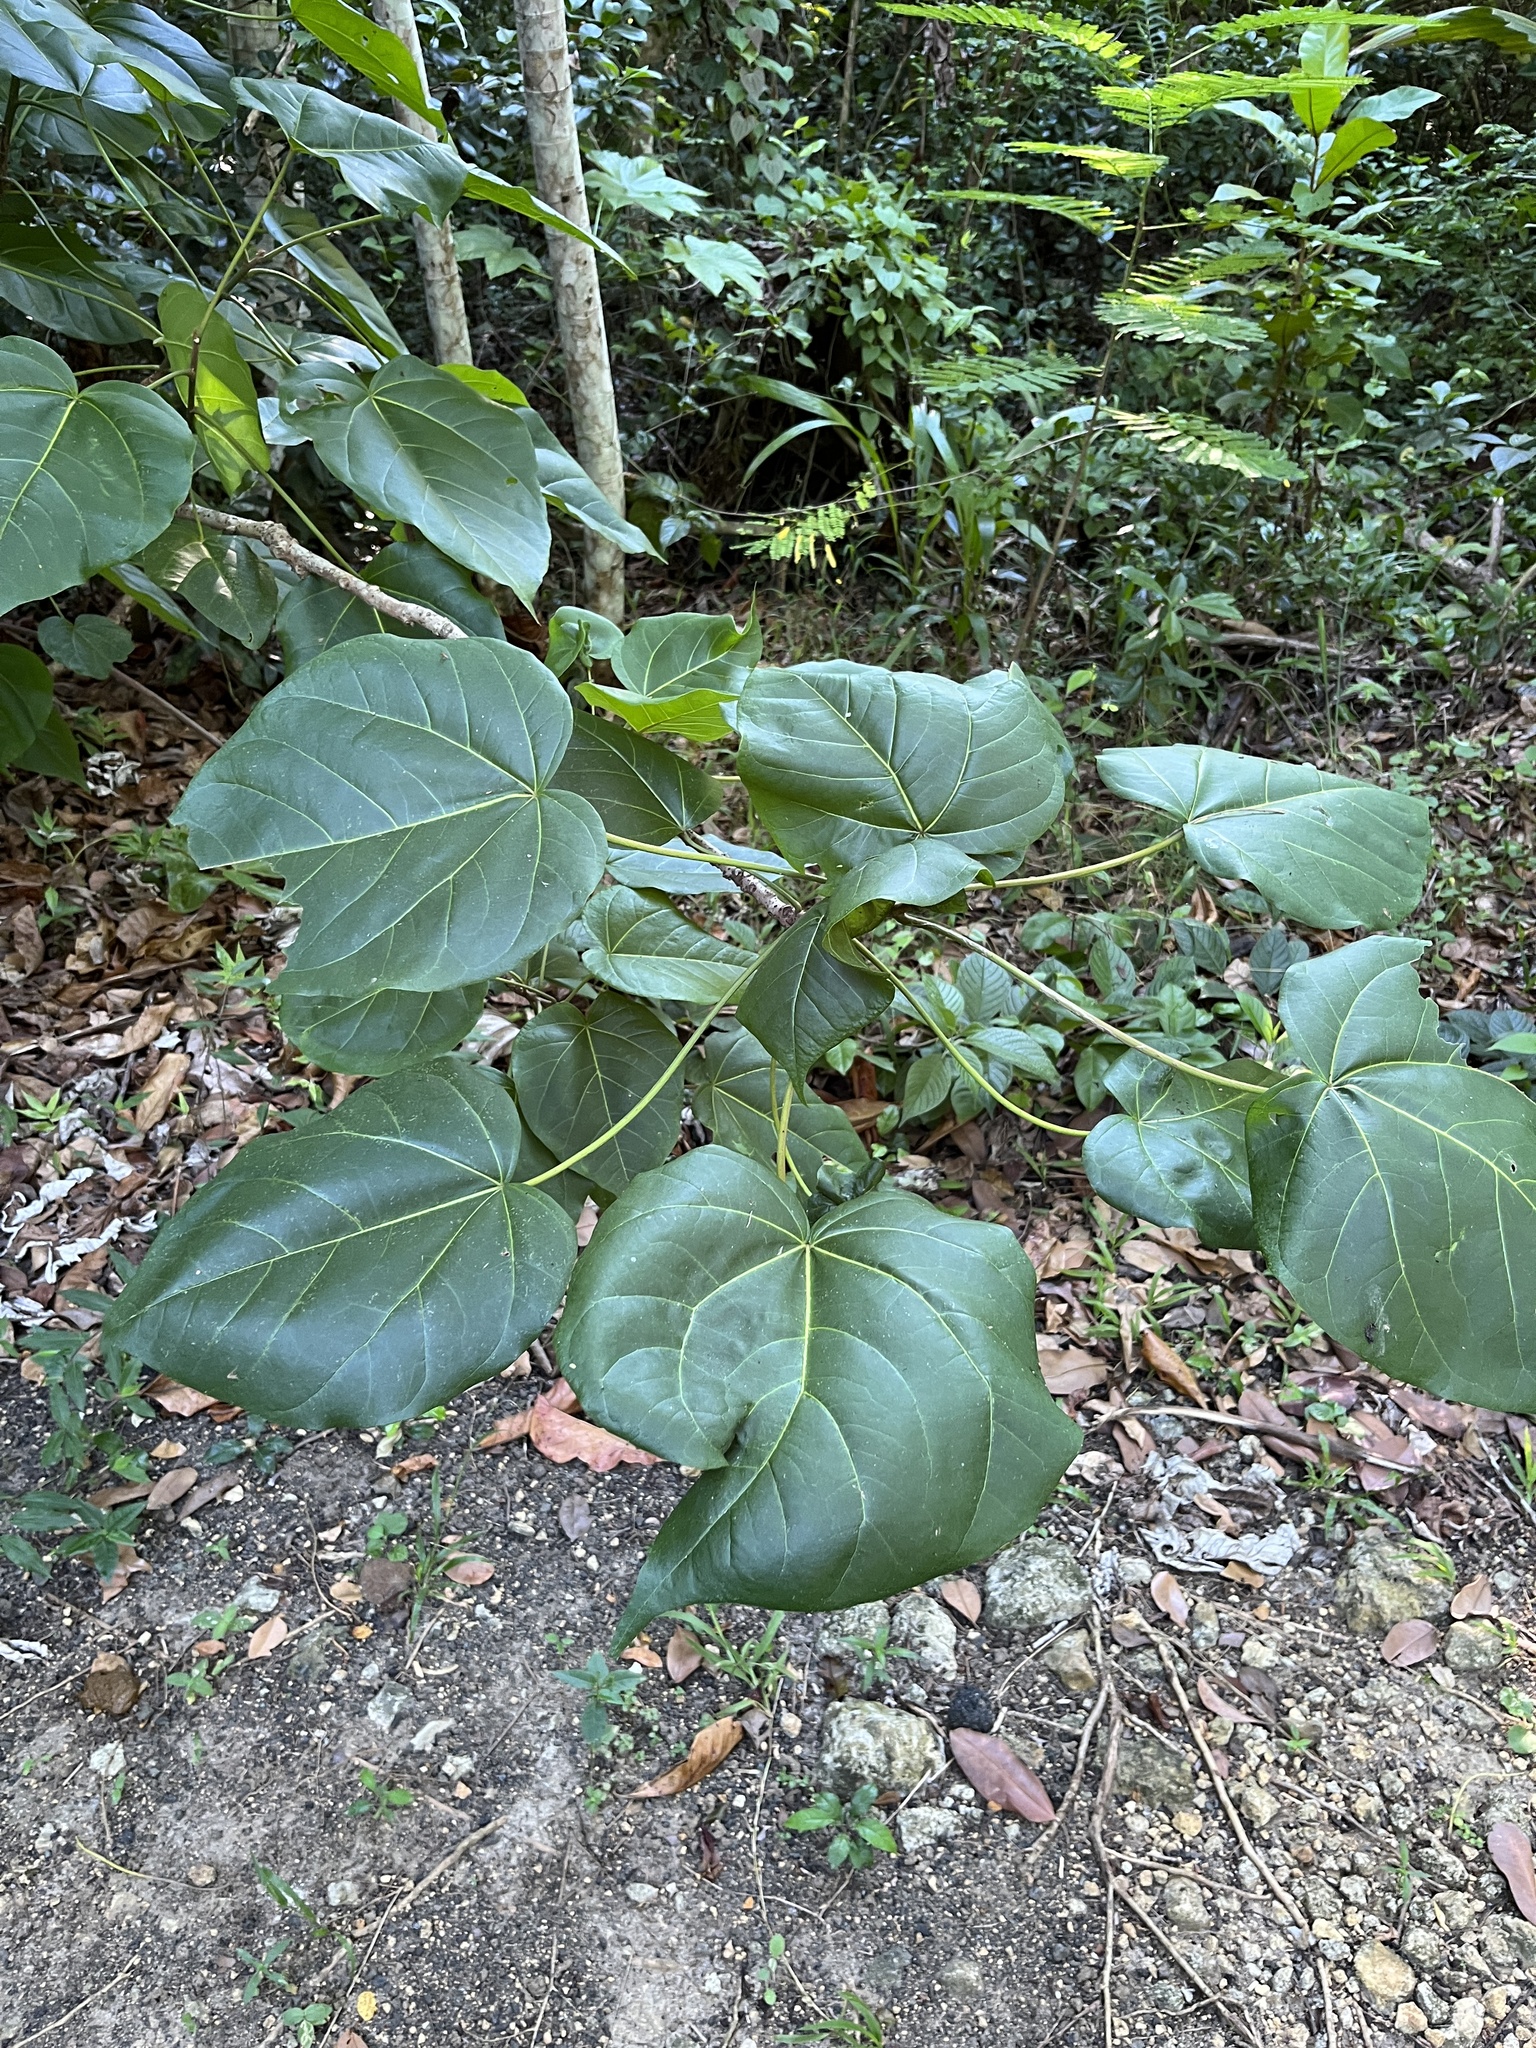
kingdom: Plantae
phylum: Tracheophyta
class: Magnoliopsida
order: Malvales
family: Malvaceae
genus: Thespesia
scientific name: Thespesia grandiflora
